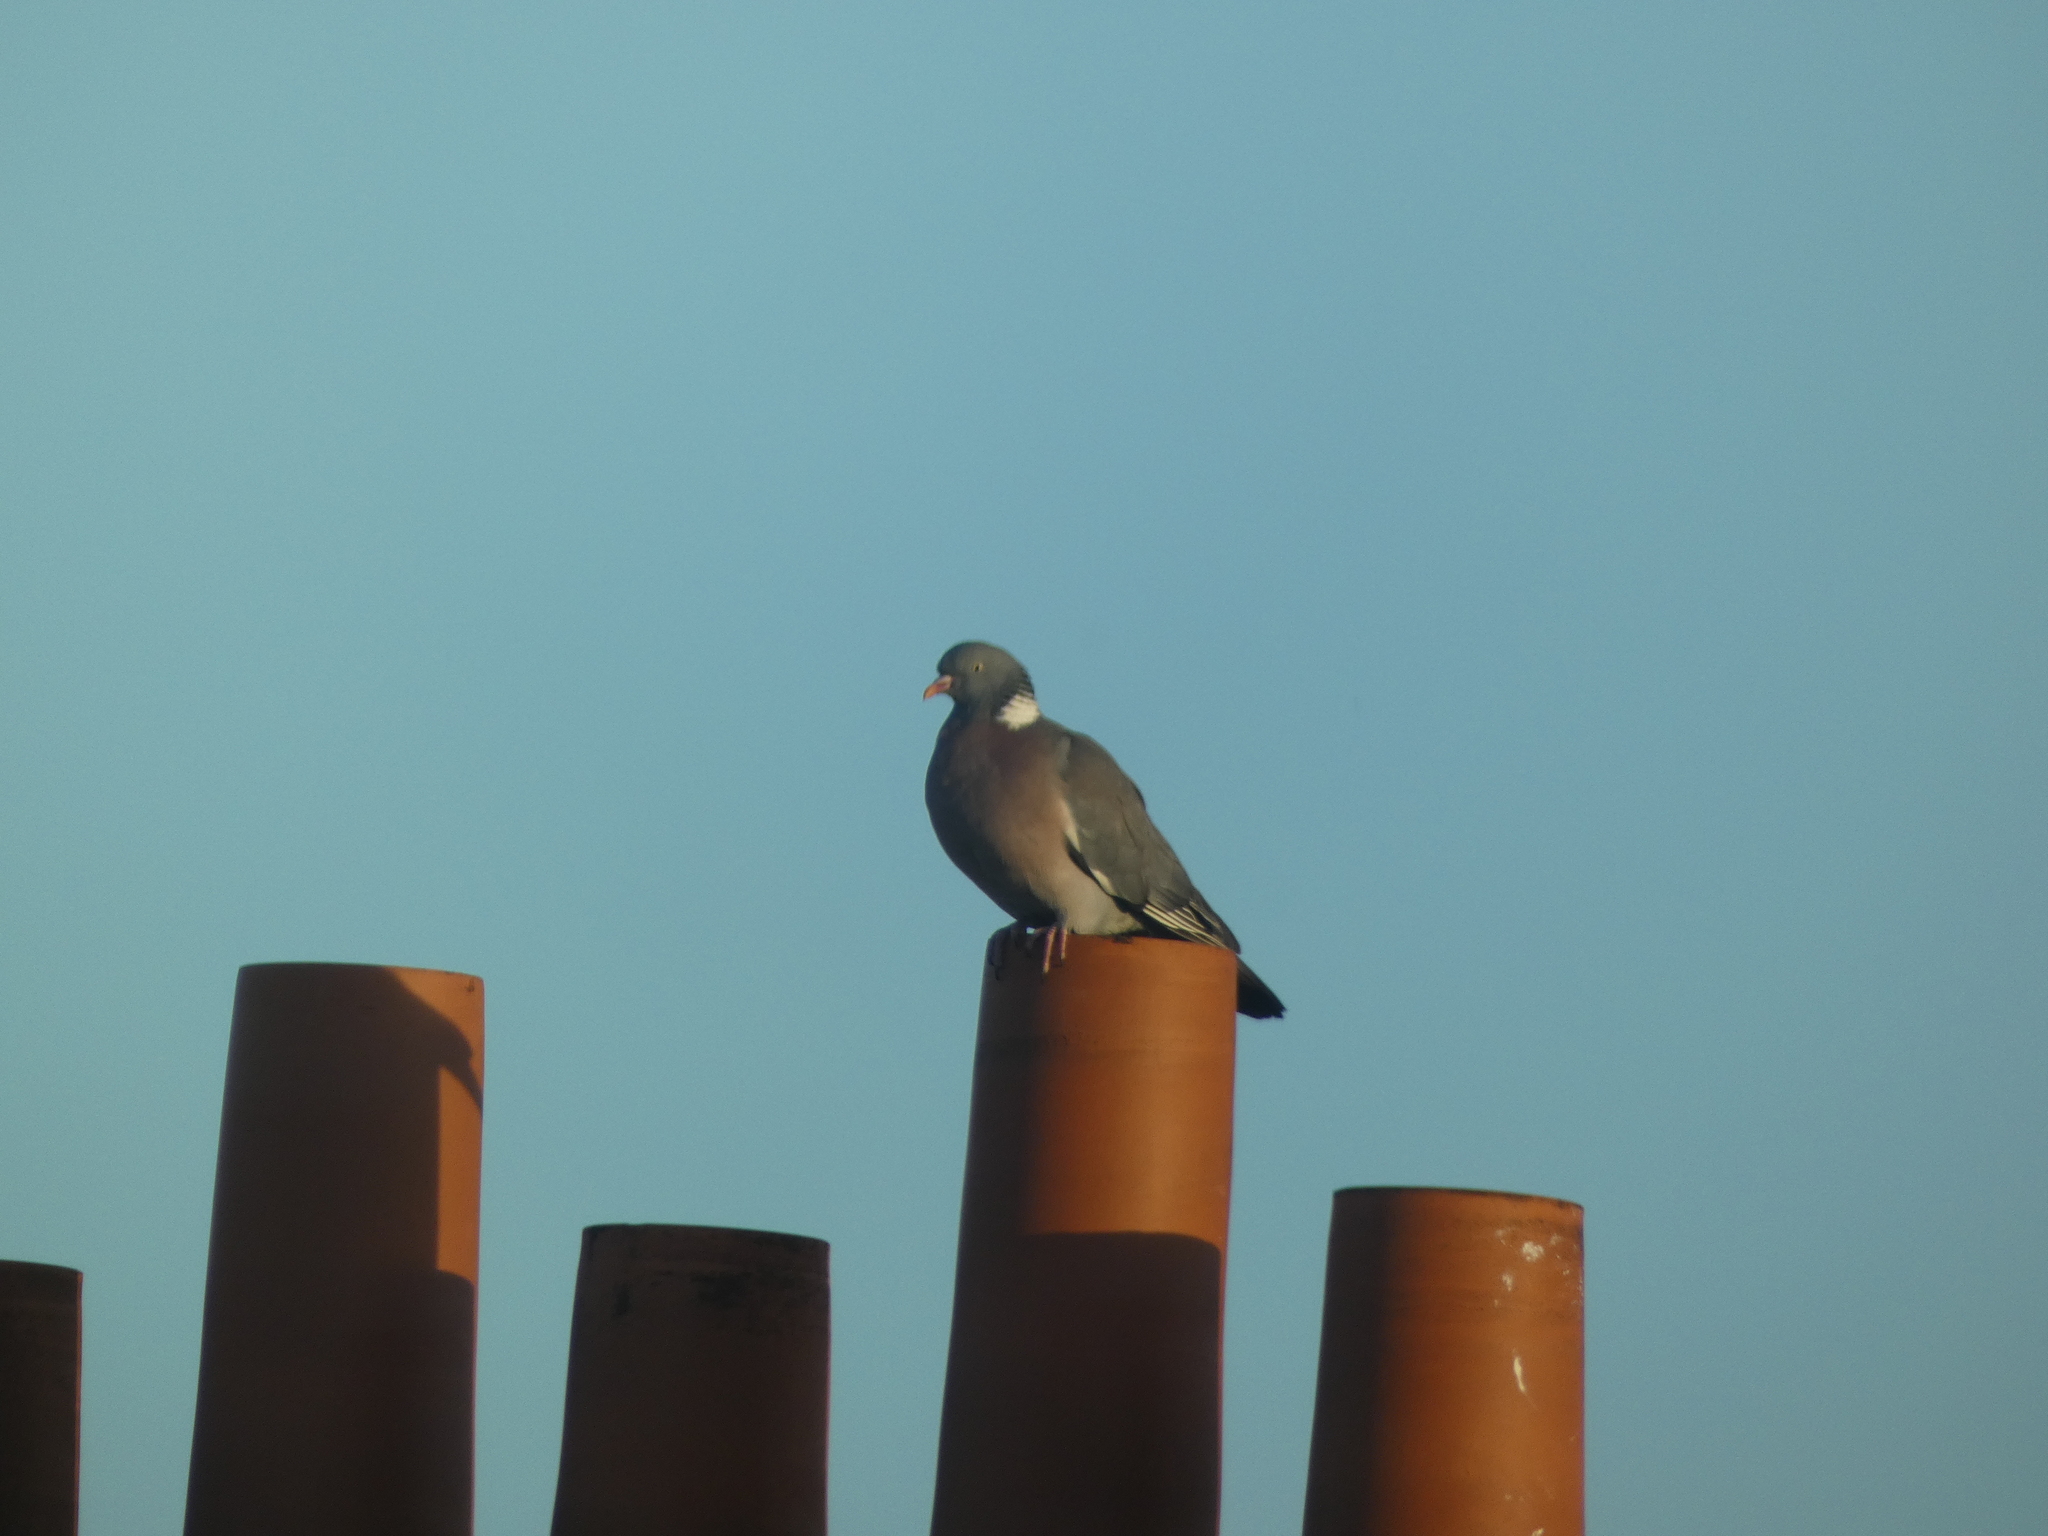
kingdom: Animalia
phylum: Chordata
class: Aves
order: Columbiformes
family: Columbidae
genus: Columba
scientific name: Columba palumbus
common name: Common wood pigeon
